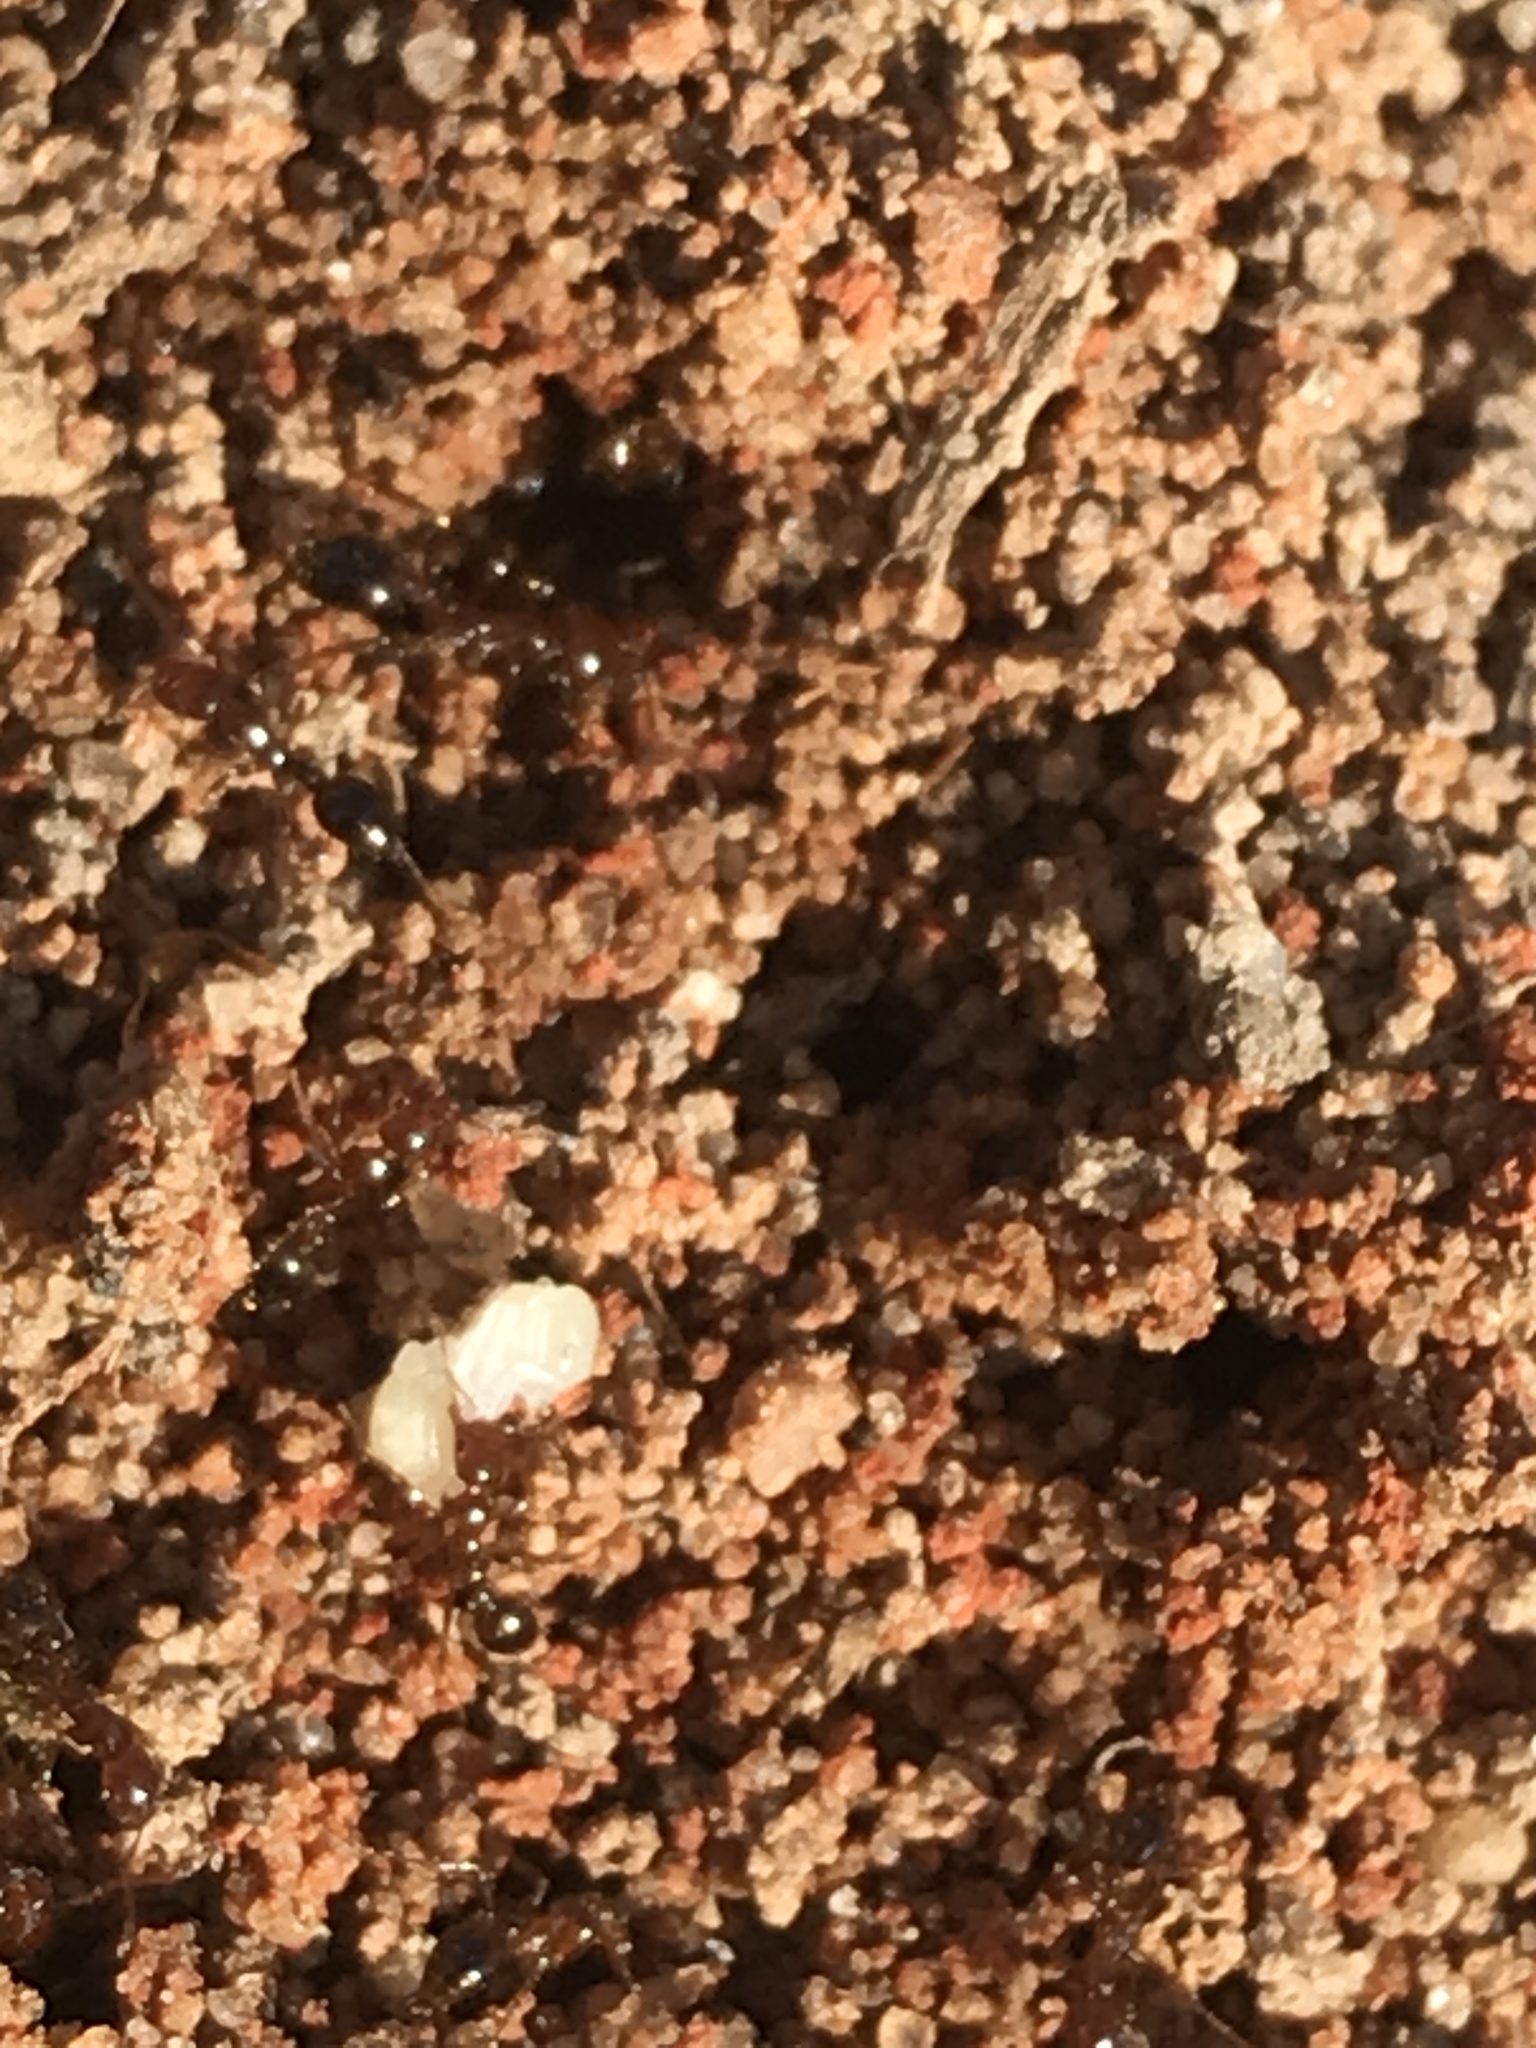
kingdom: Animalia
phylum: Arthropoda
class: Insecta
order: Hymenoptera
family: Formicidae
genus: Solenopsis
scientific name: Solenopsis invicta
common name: Red imported fire ant
